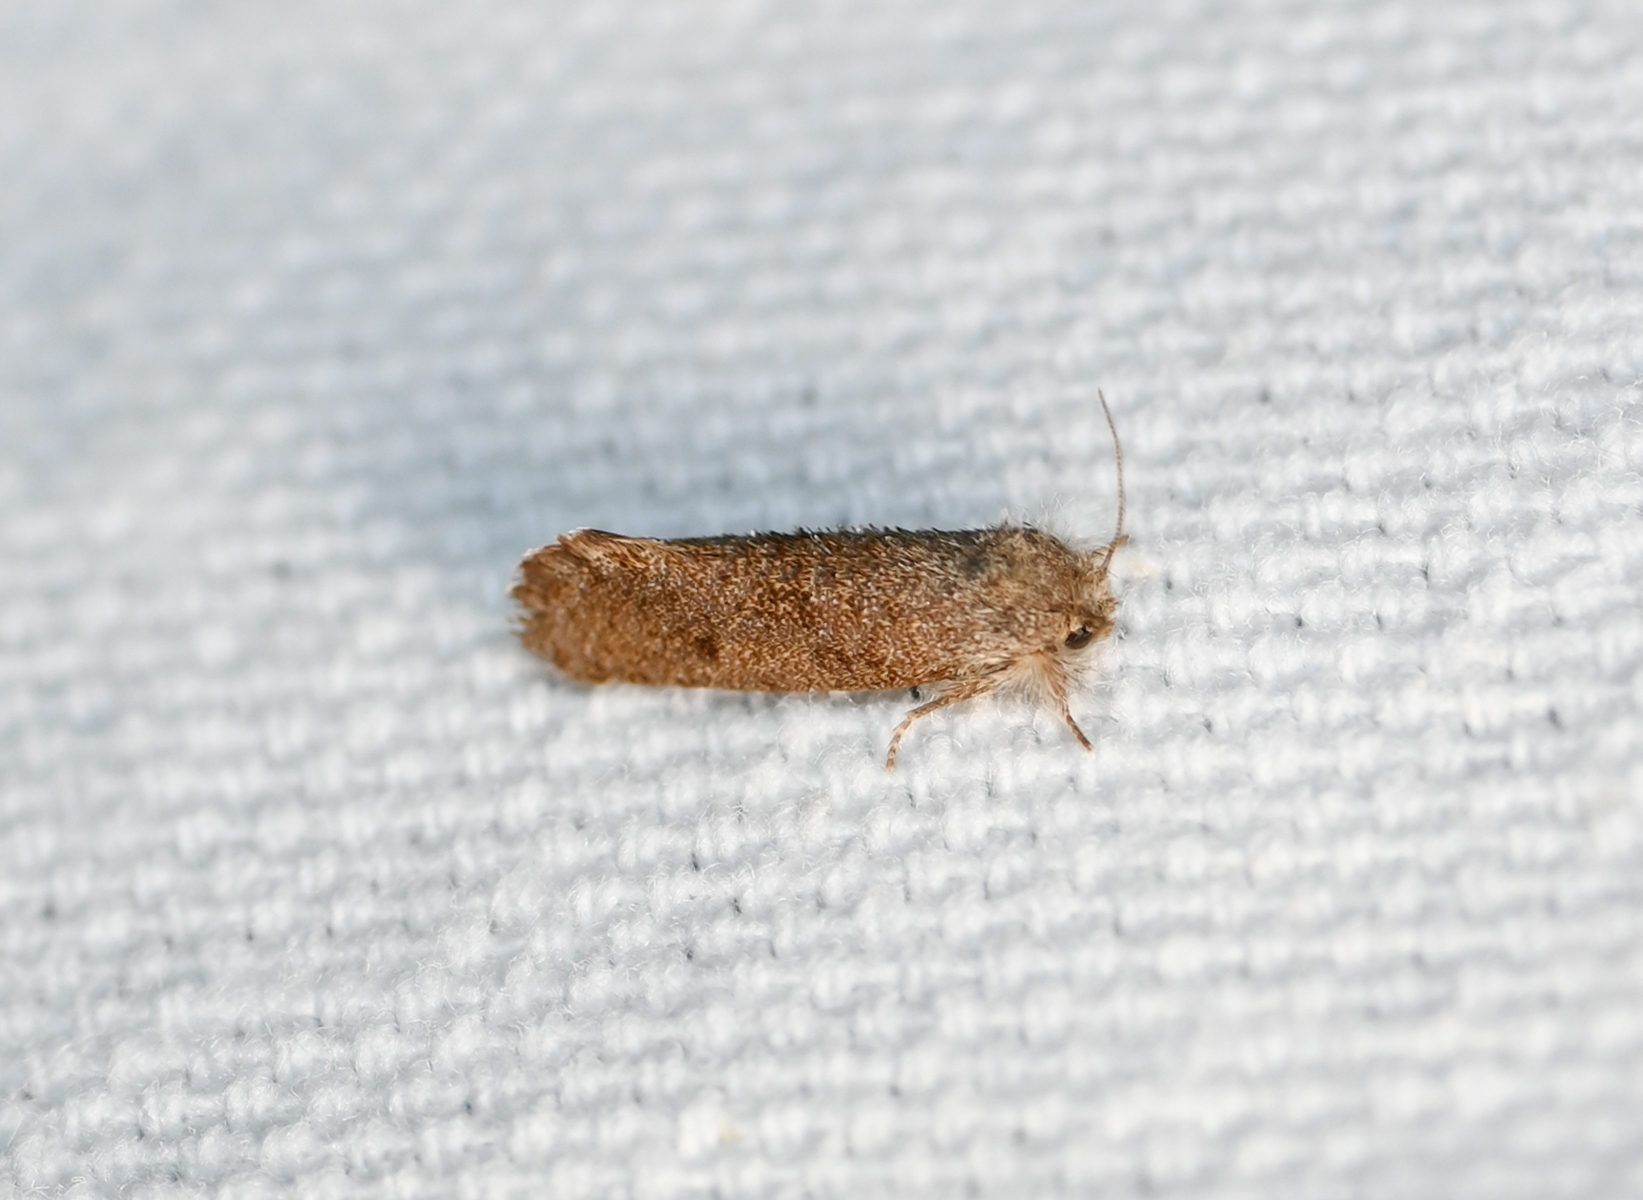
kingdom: Animalia
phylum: Arthropoda
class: Insecta
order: Lepidoptera
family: Tineidae
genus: Acrolophus
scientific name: Acrolophus heppneri
